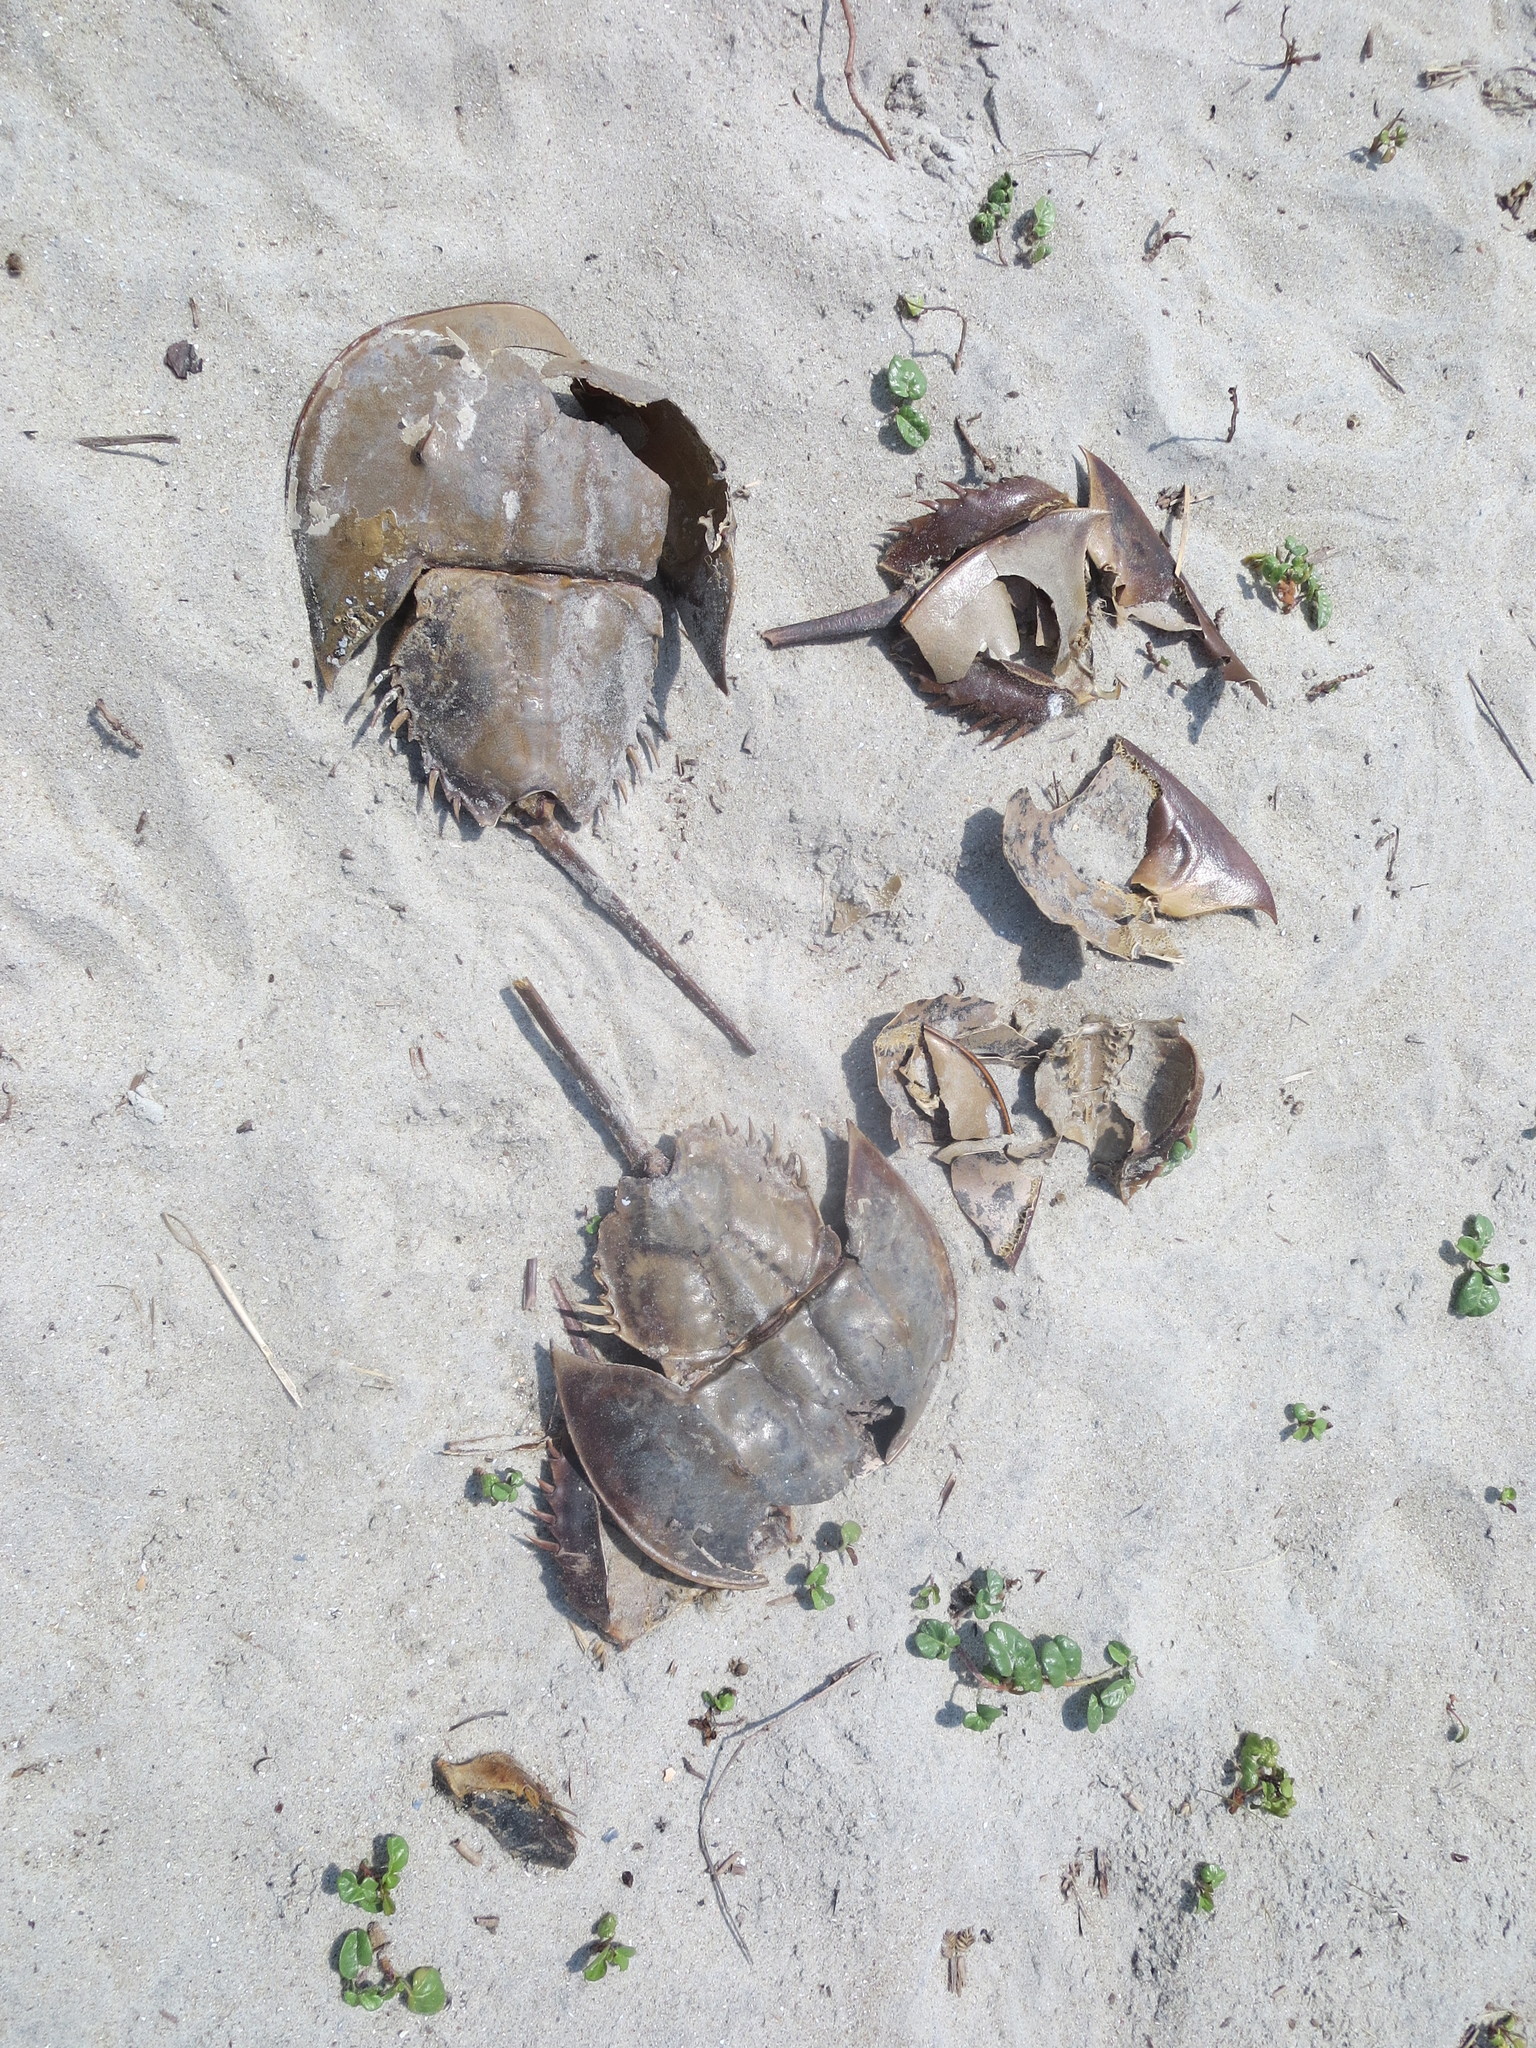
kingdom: Animalia
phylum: Arthropoda
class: Merostomata
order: Xiphosurida
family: Limulidae
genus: Limulus
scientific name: Limulus polyphemus
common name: Horseshoe crab
